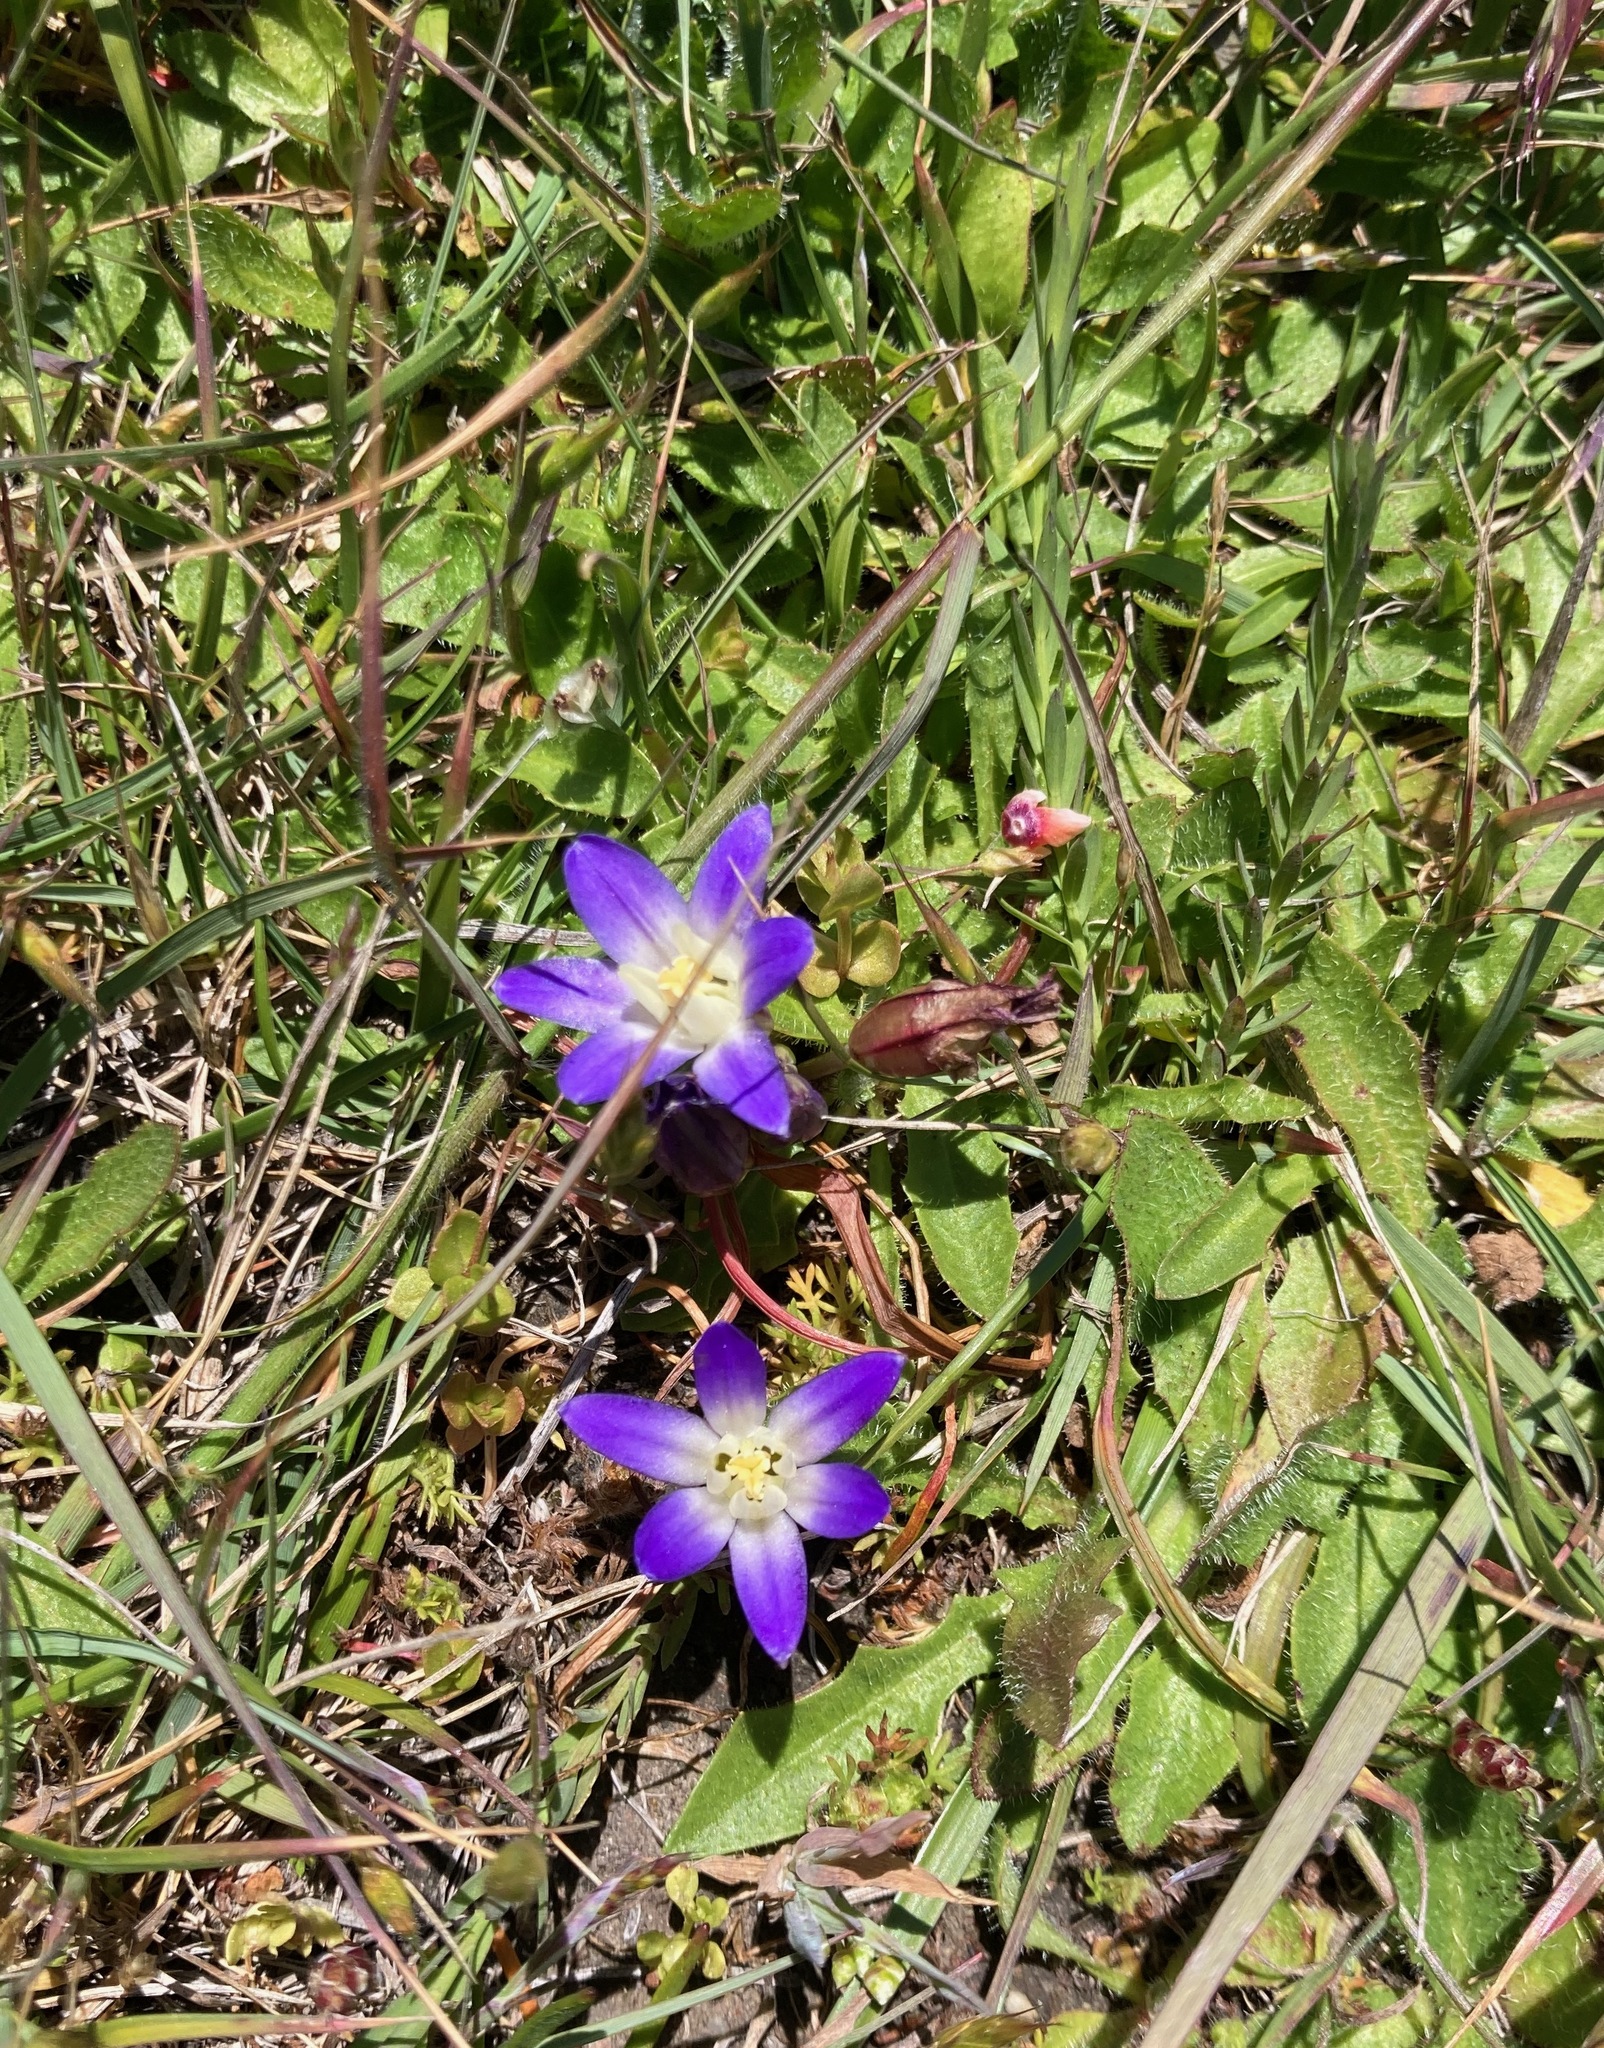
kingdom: Plantae
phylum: Tracheophyta
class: Liliopsida
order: Asparagales
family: Asparagaceae
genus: Brodiaea
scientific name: Brodiaea terrestris
